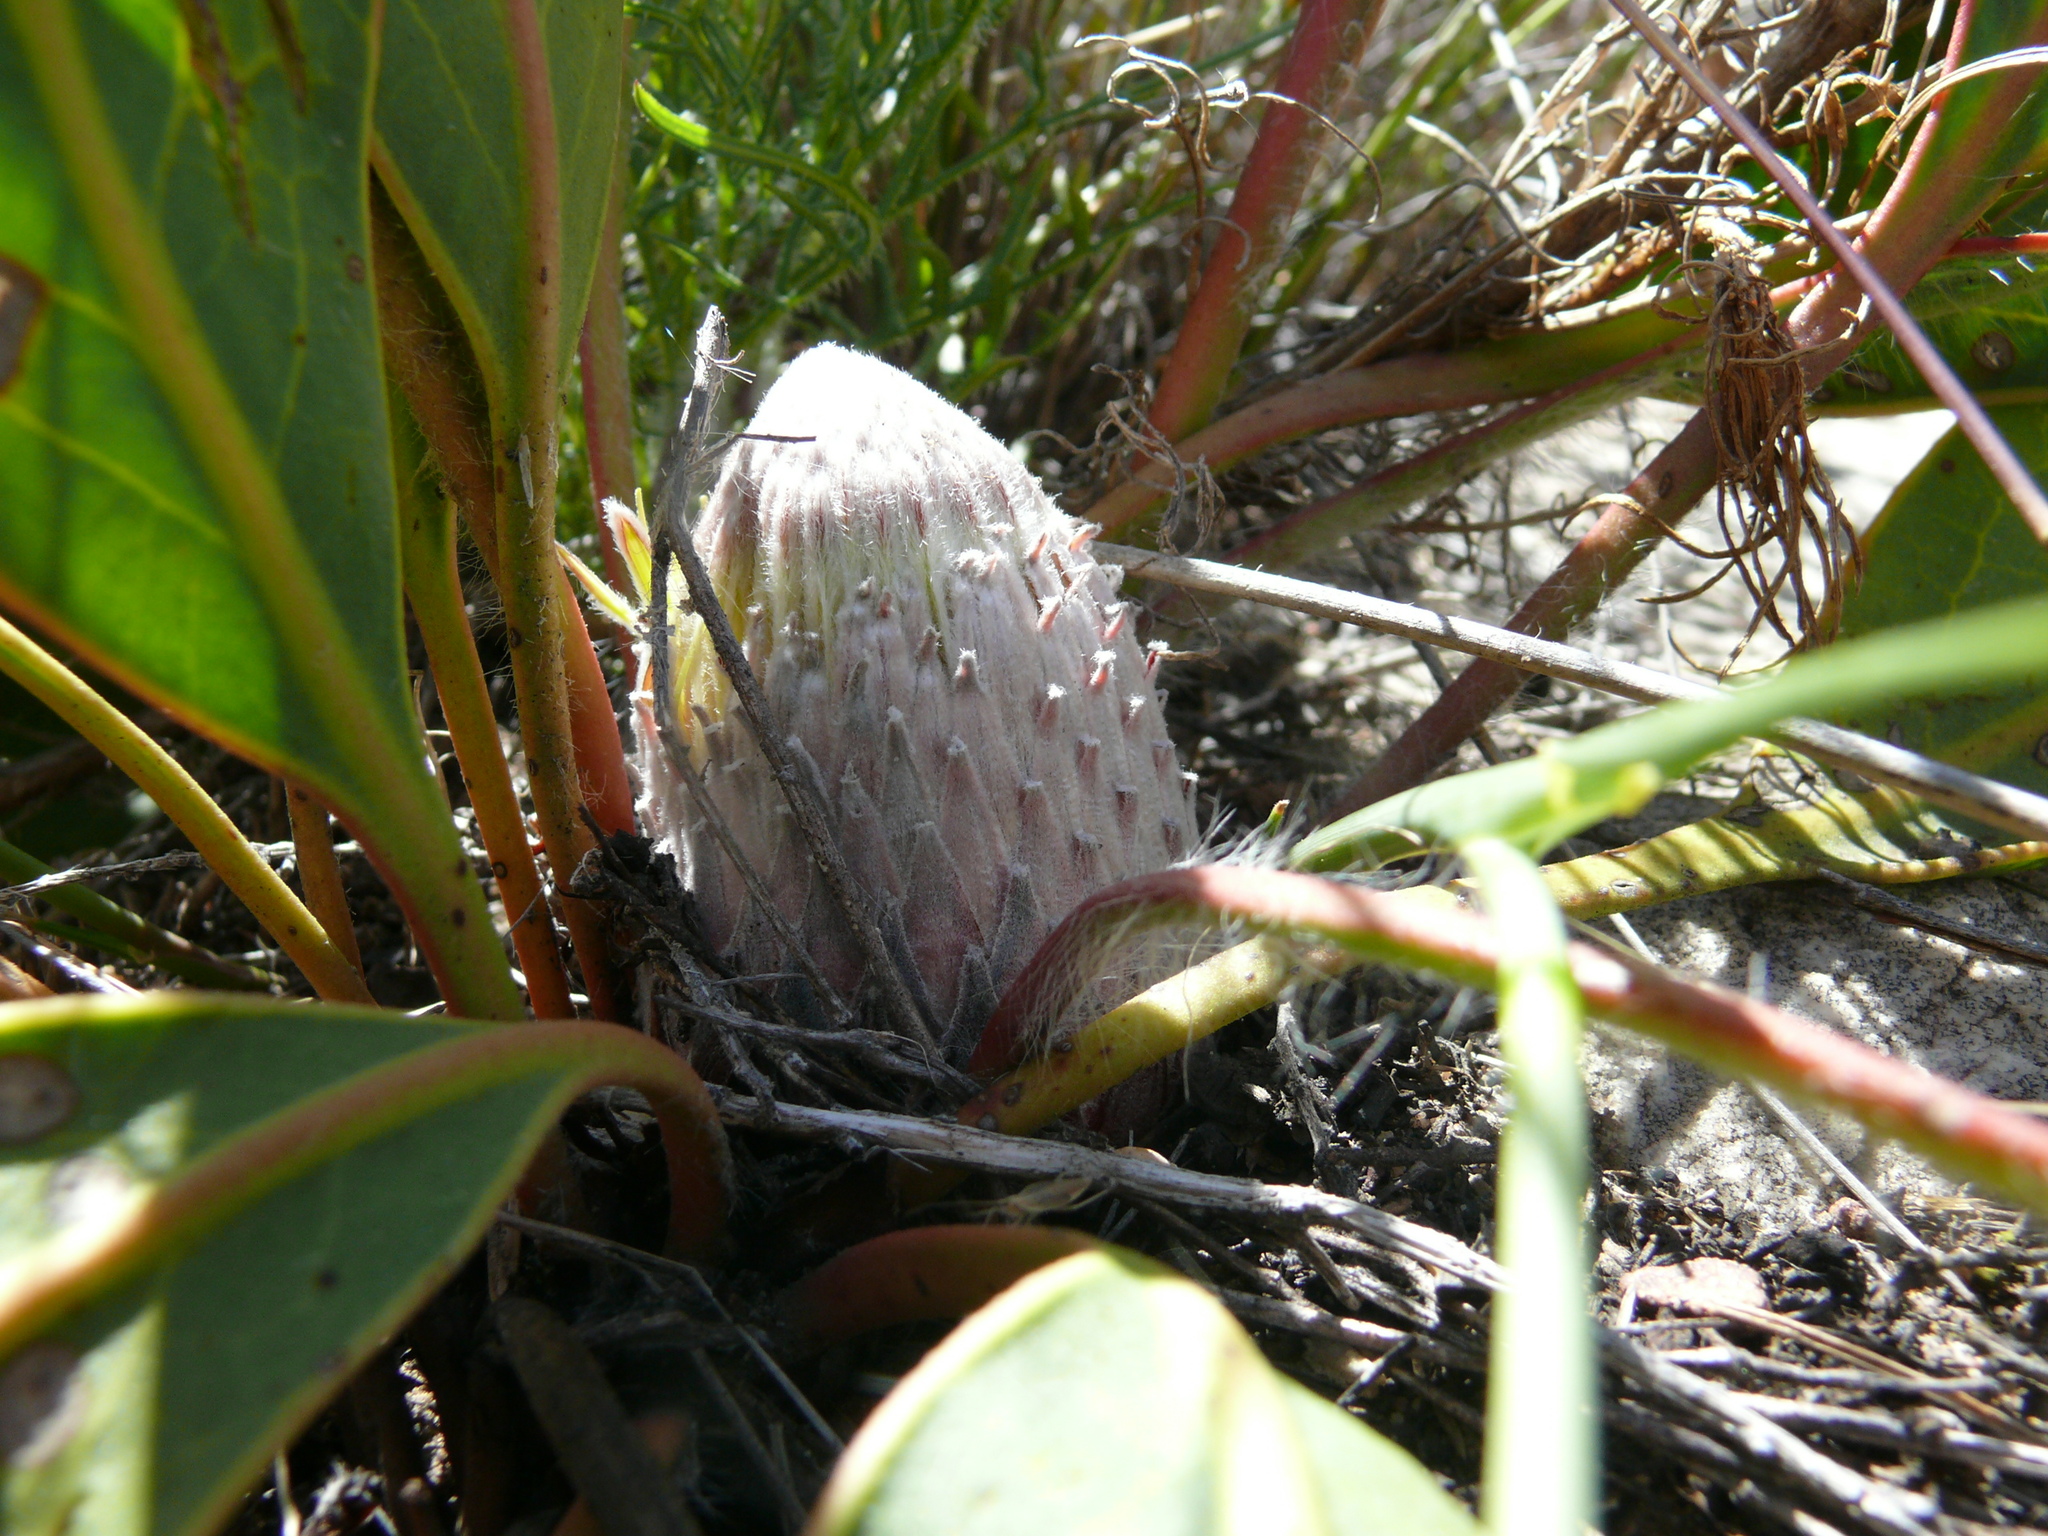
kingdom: Plantae
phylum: Tracheophyta
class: Magnoliopsida
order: Proteales
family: Proteaceae
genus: Protea
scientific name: Protea scolopendriifolia
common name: Harts-tongue-fern sugarbush
